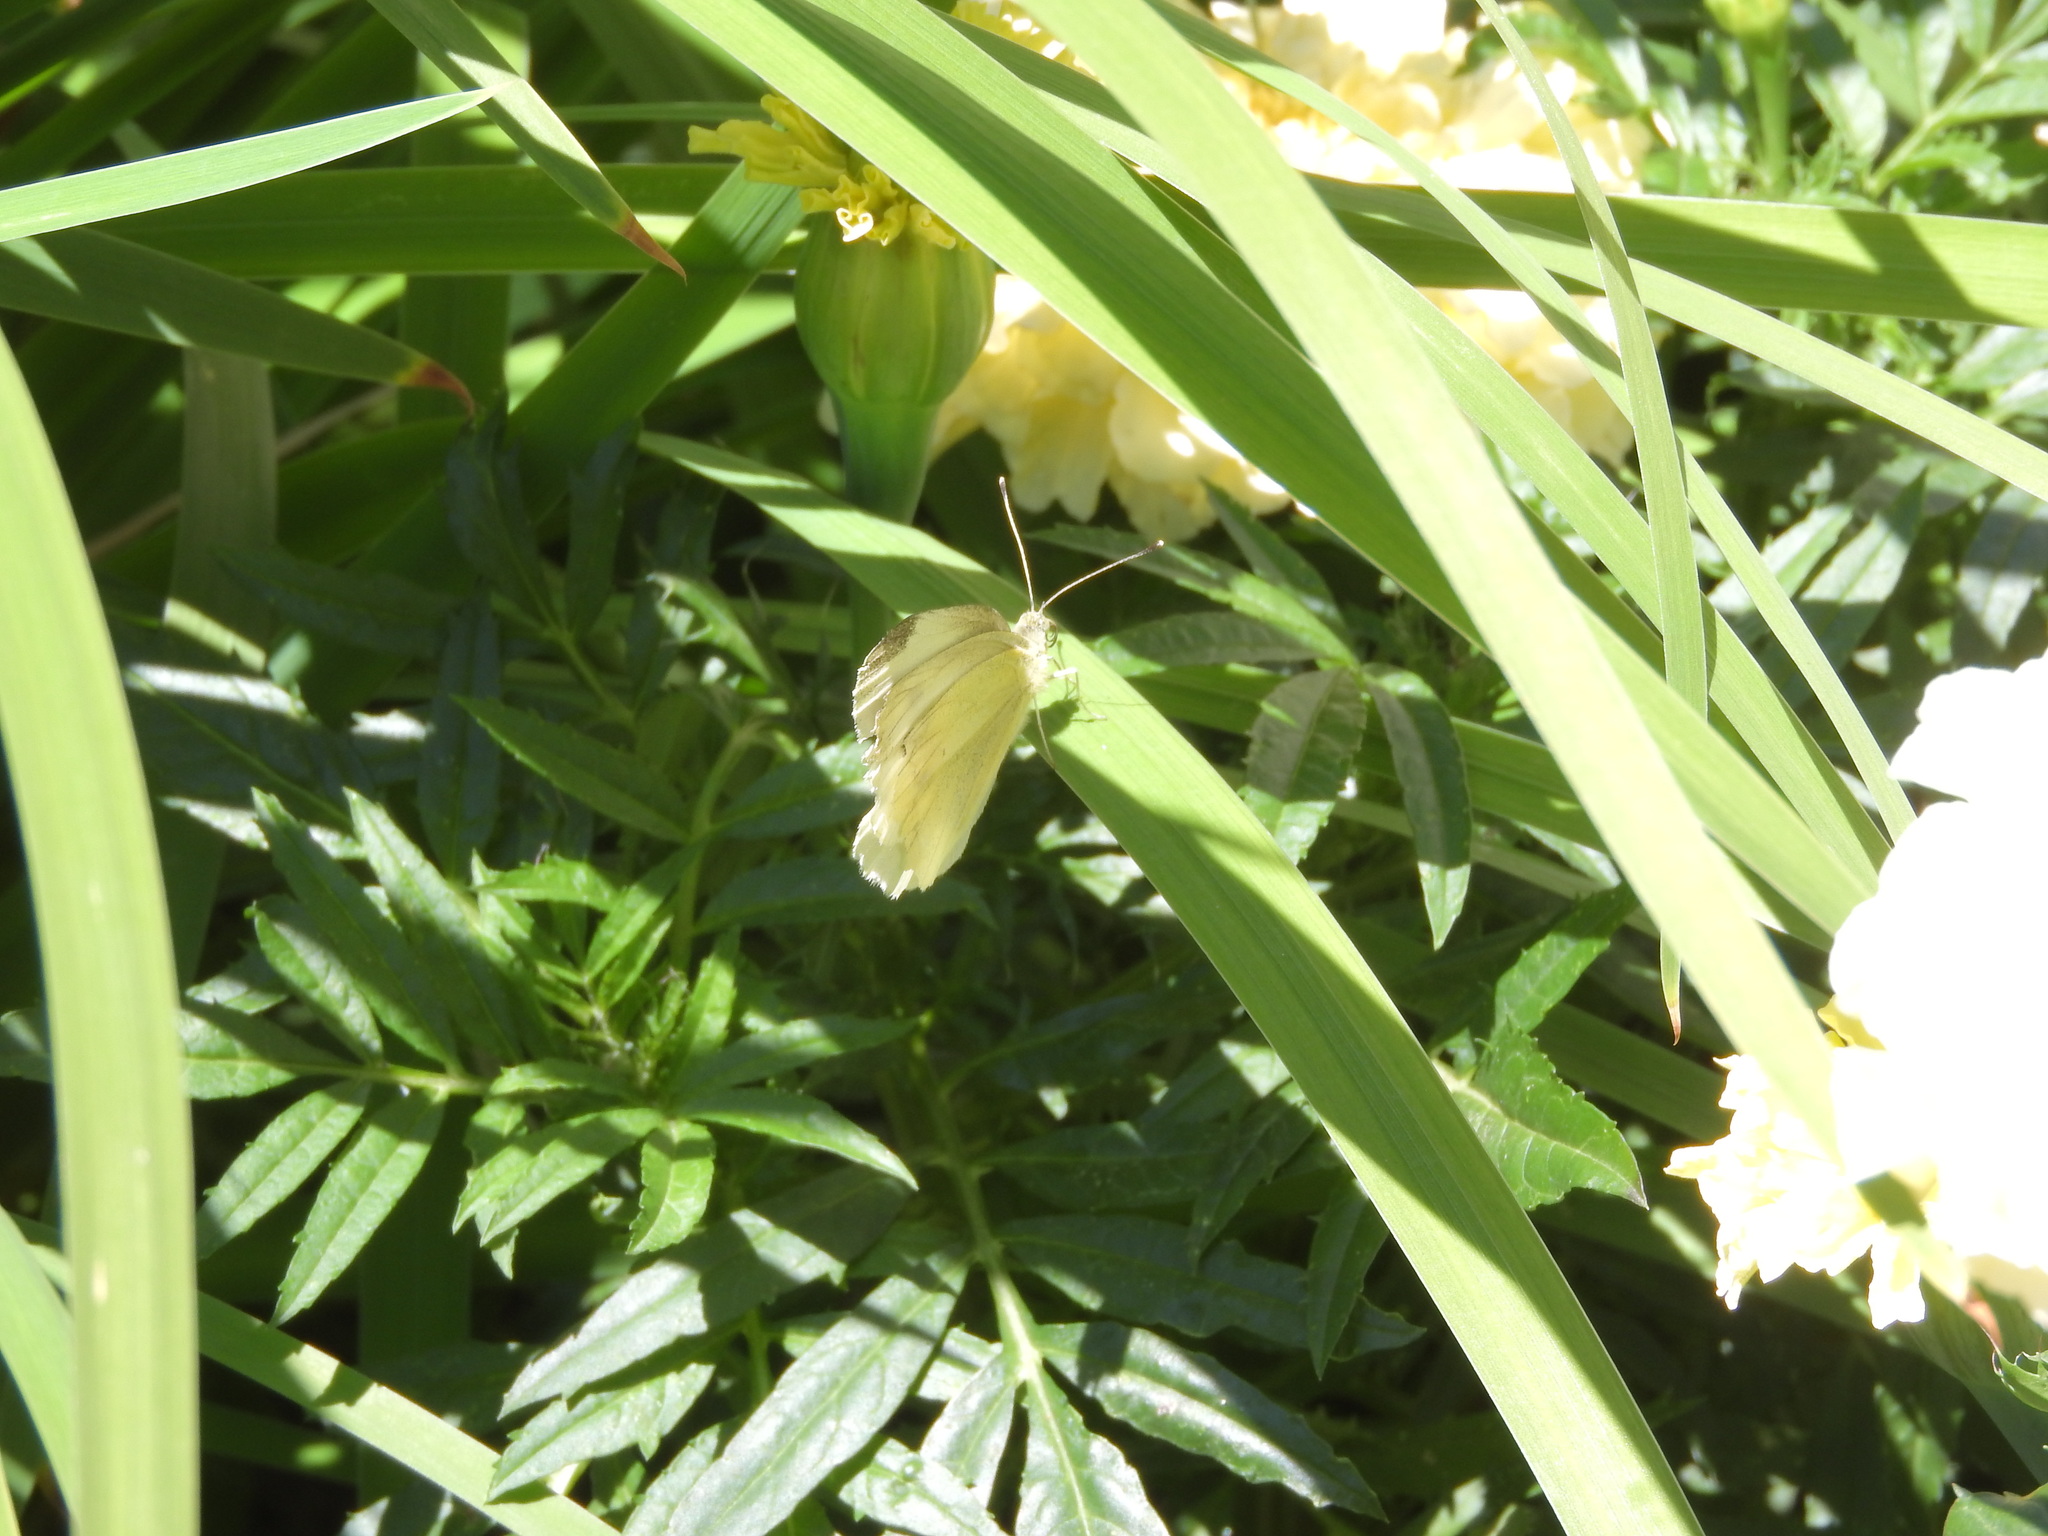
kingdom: Animalia
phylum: Arthropoda
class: Insecta
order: Lepidoptera
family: Pieridae
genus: Pieris
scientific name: Pieris rapae
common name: Small white
